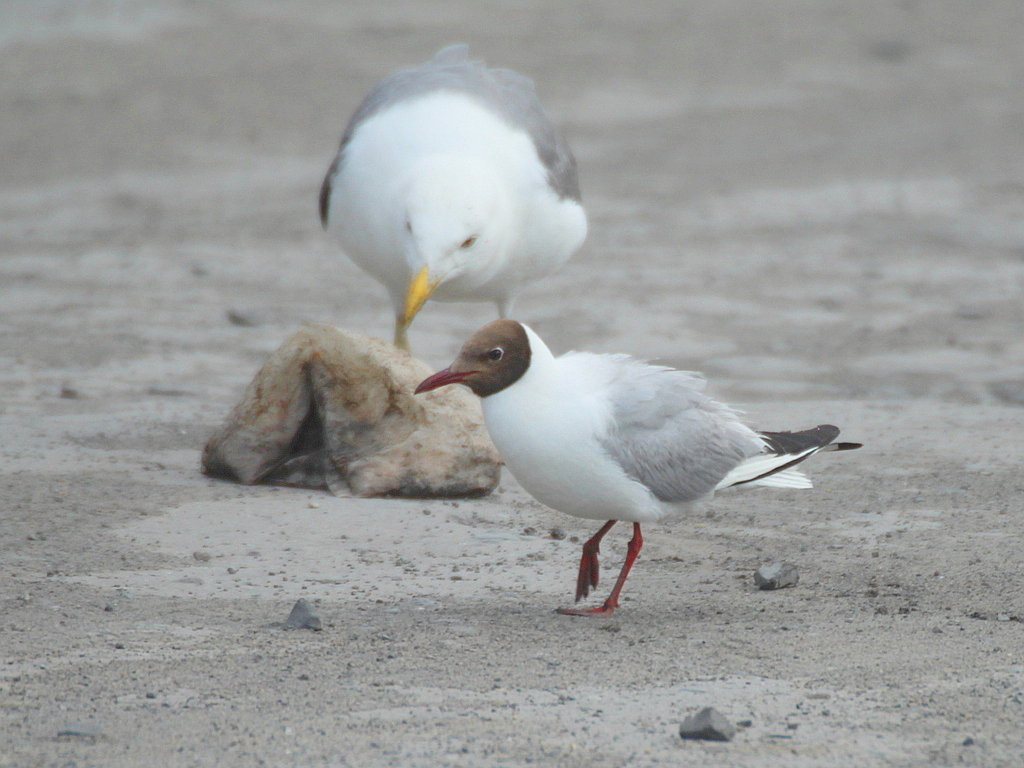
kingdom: Animalia
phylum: Chordata
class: Aves
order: Charadriiformes
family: Laridae
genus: Chroicocephalus
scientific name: Chroicocephalus ridibundus
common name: Black-headed gull
